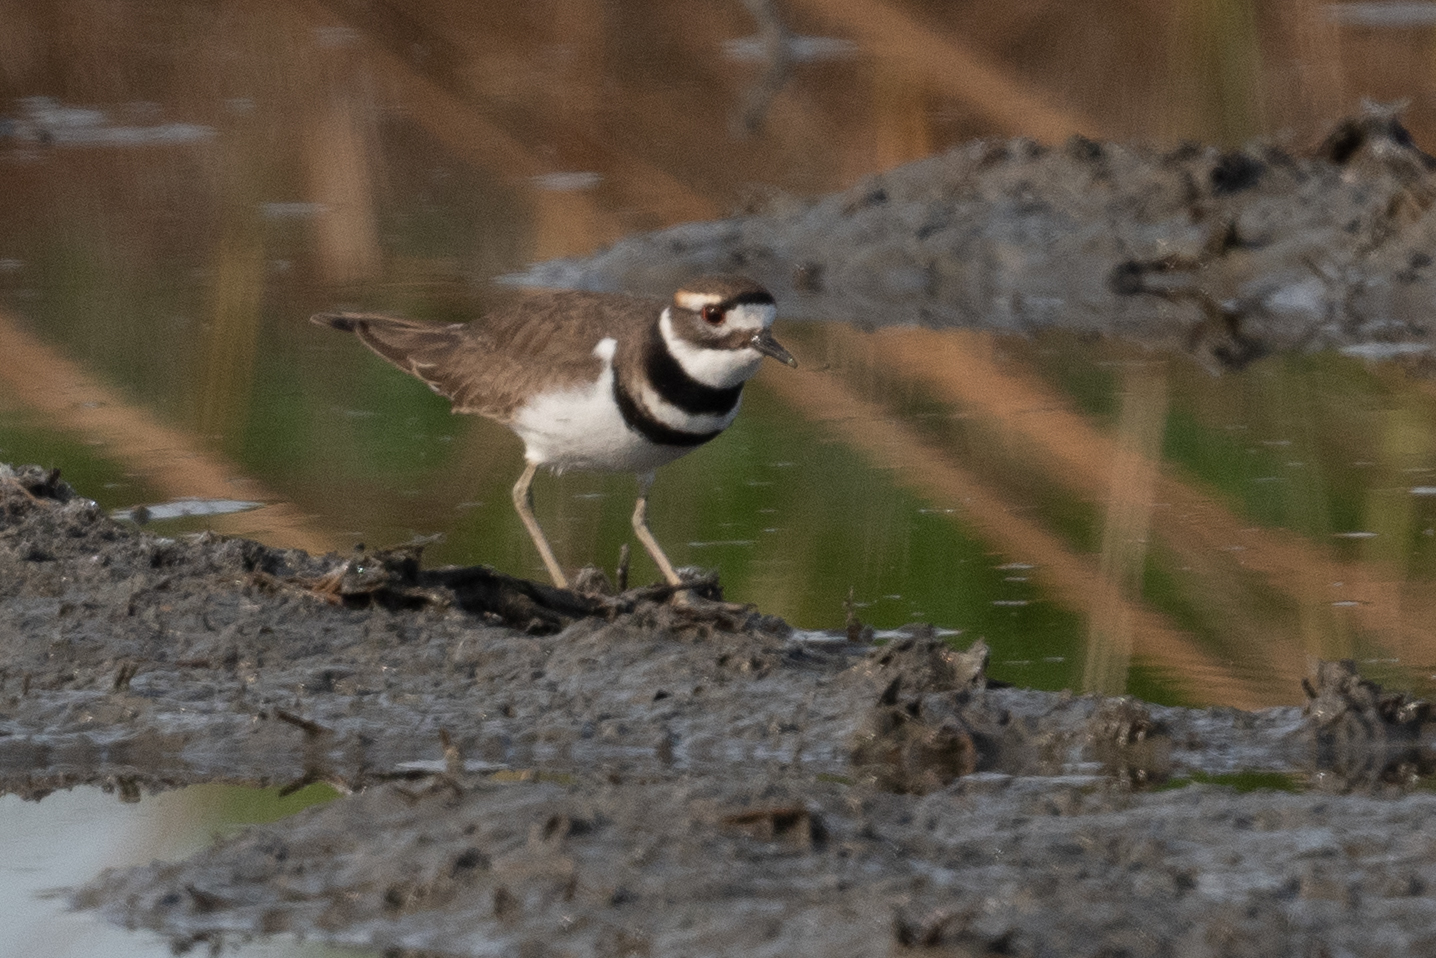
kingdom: Animalia
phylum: Chordata
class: Aves
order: Charadriiformes
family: Charadriidae
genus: Charadrius
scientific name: Charadrius vociferus
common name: Killdeer
